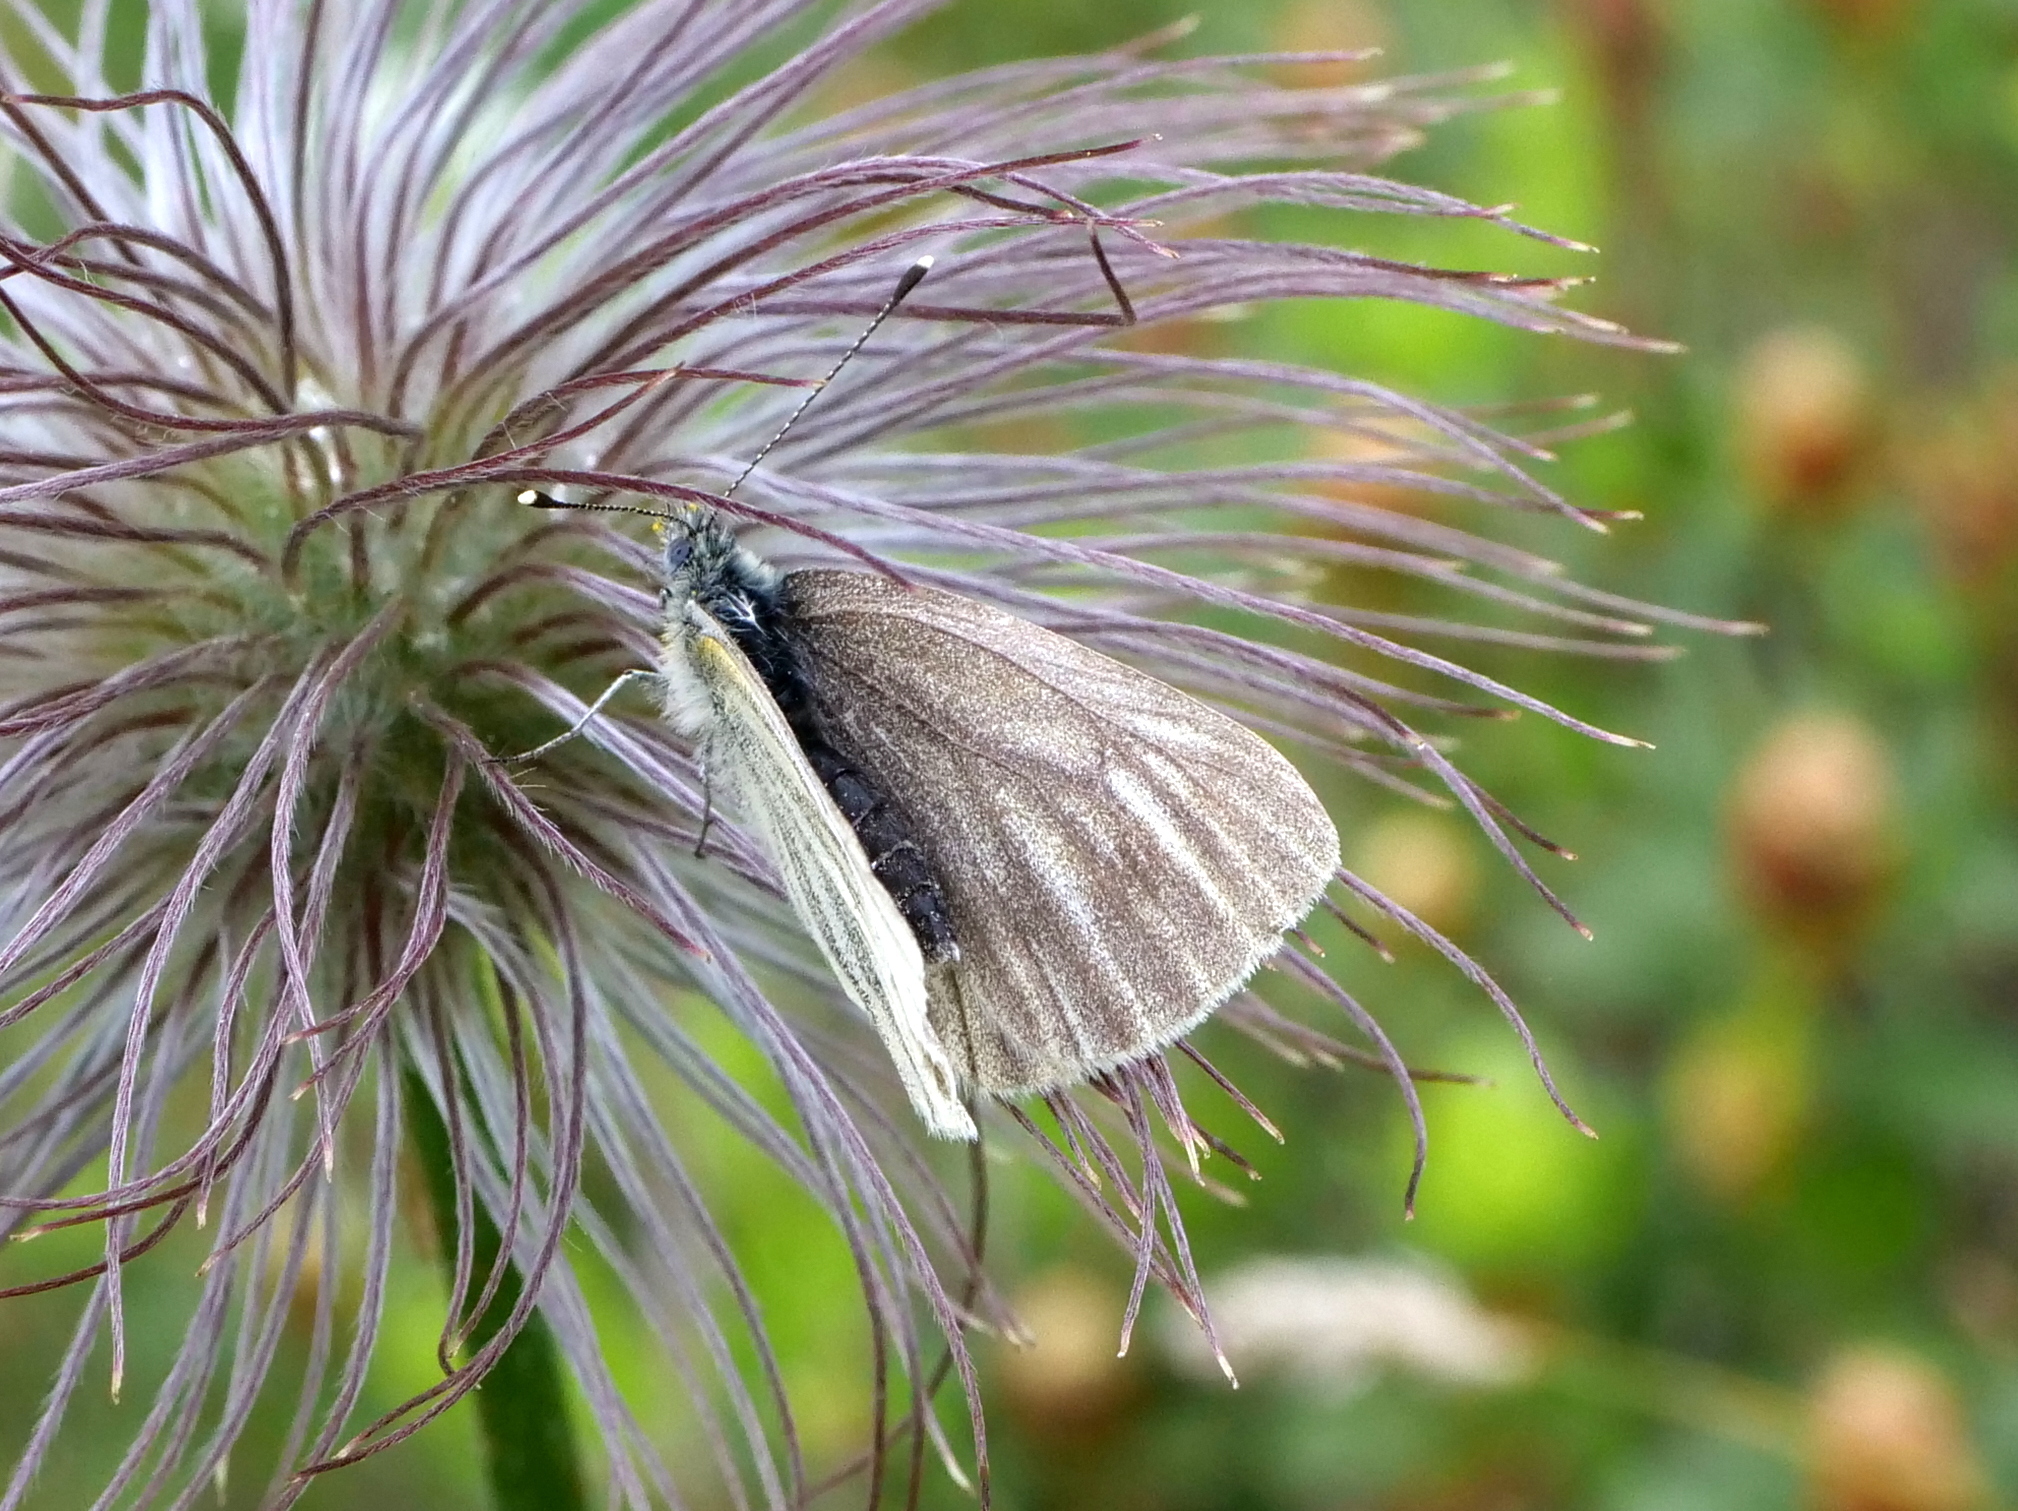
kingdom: Animalia
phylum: Arthropoda
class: Insecta
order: Lepidoptera
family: Pieridae
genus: Pieris
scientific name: Pieris bryoniae
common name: Mountain green-veined white
